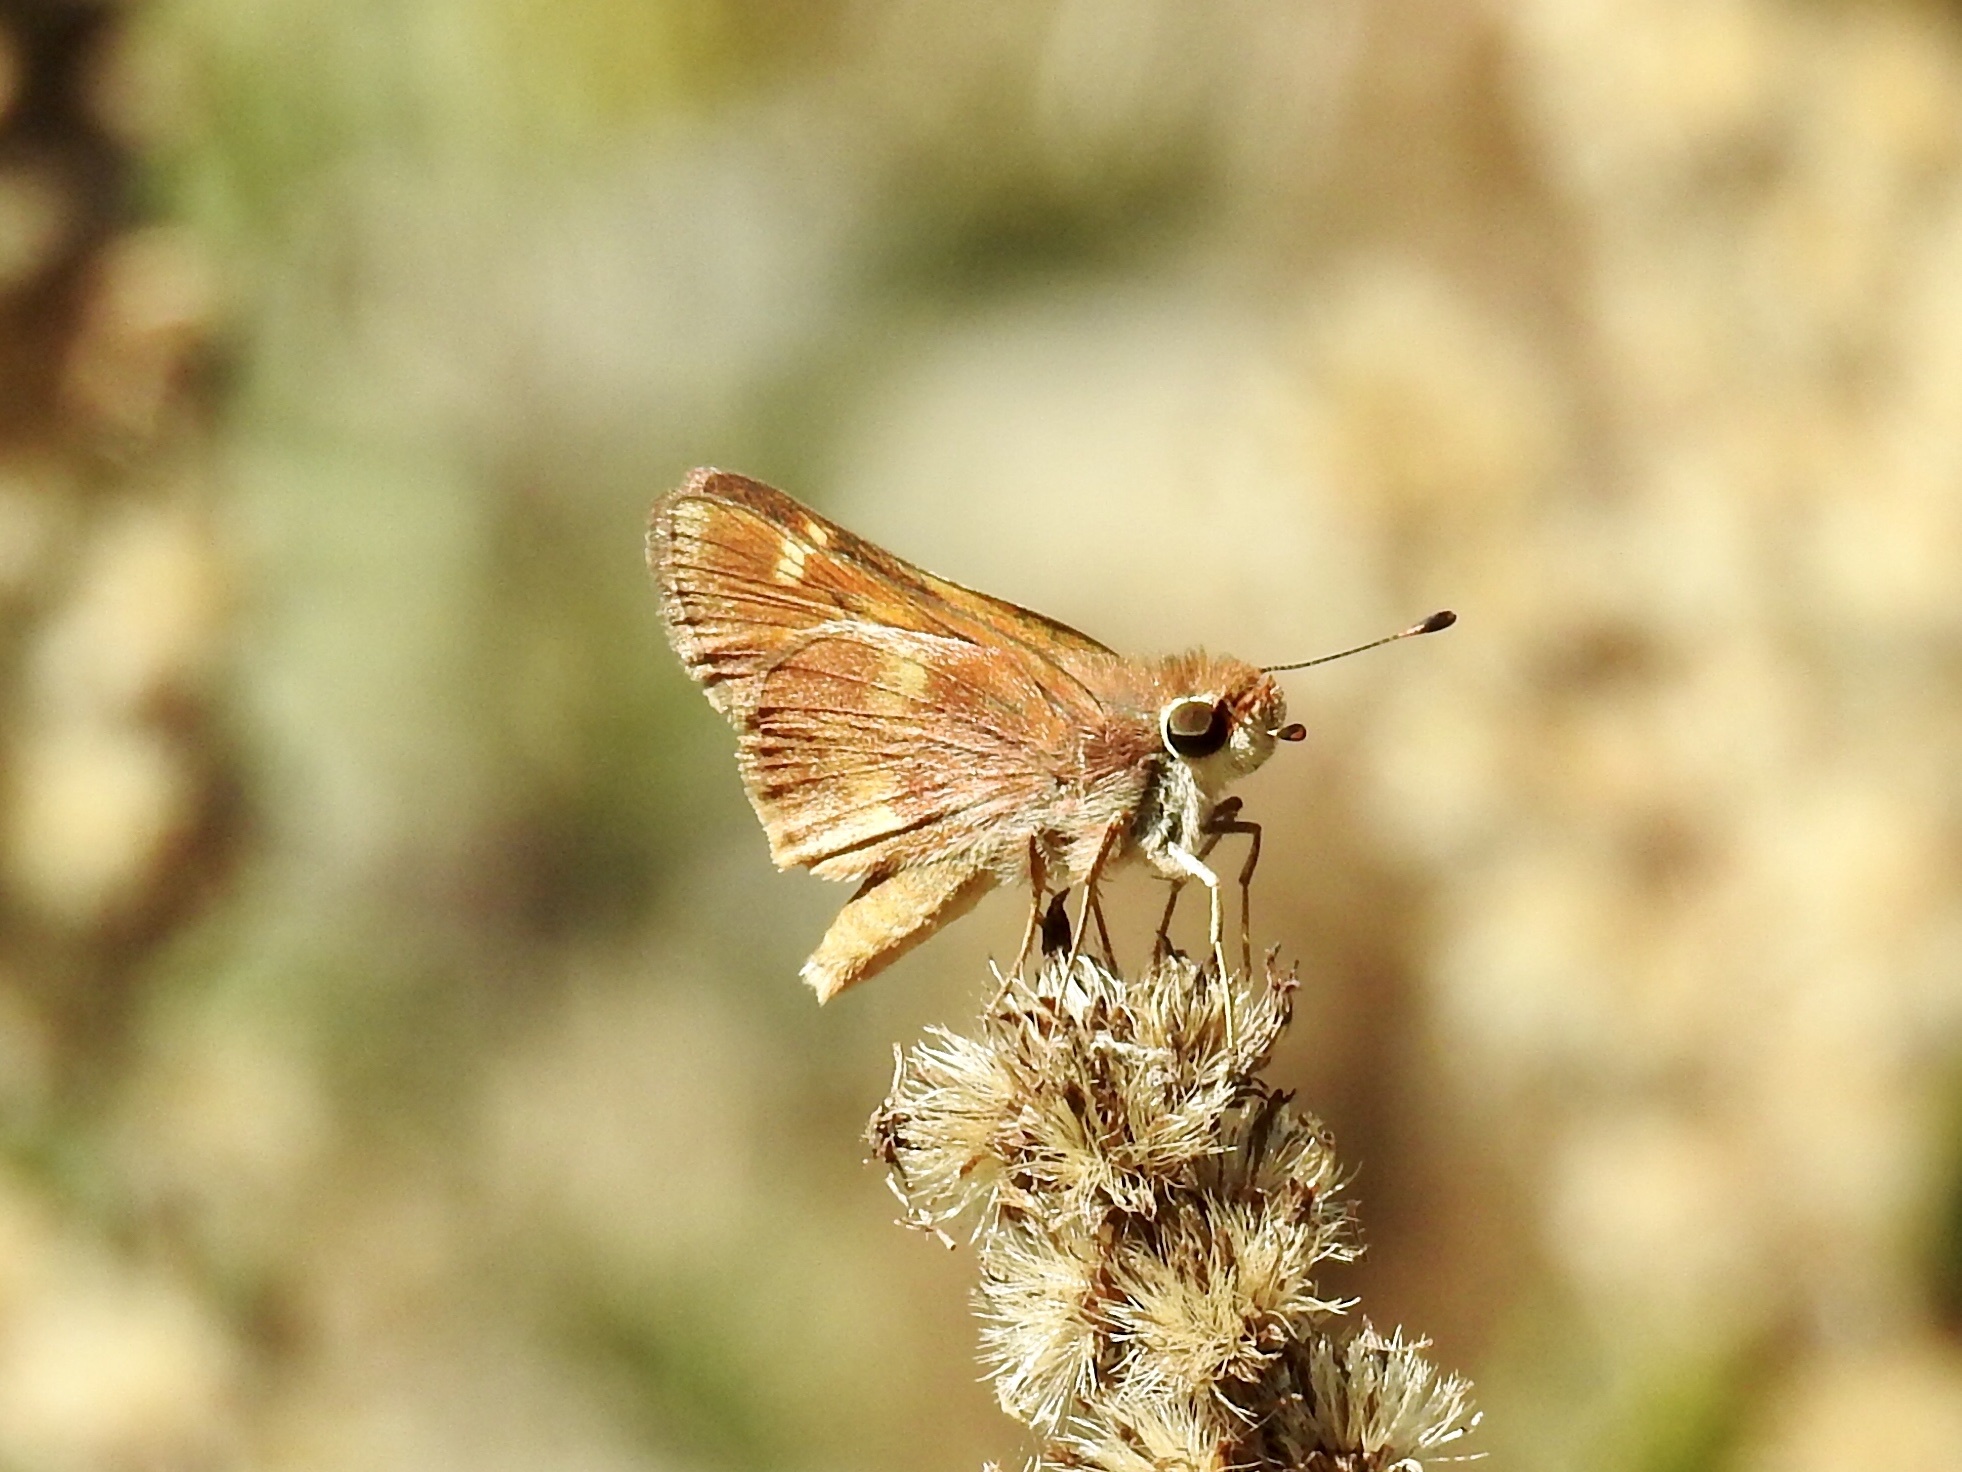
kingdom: Animalia
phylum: Arthropoda
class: Insecta
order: Lepidoptera
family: Hesperiidae
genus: Lon
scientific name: Lon melane
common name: Umber skipper
